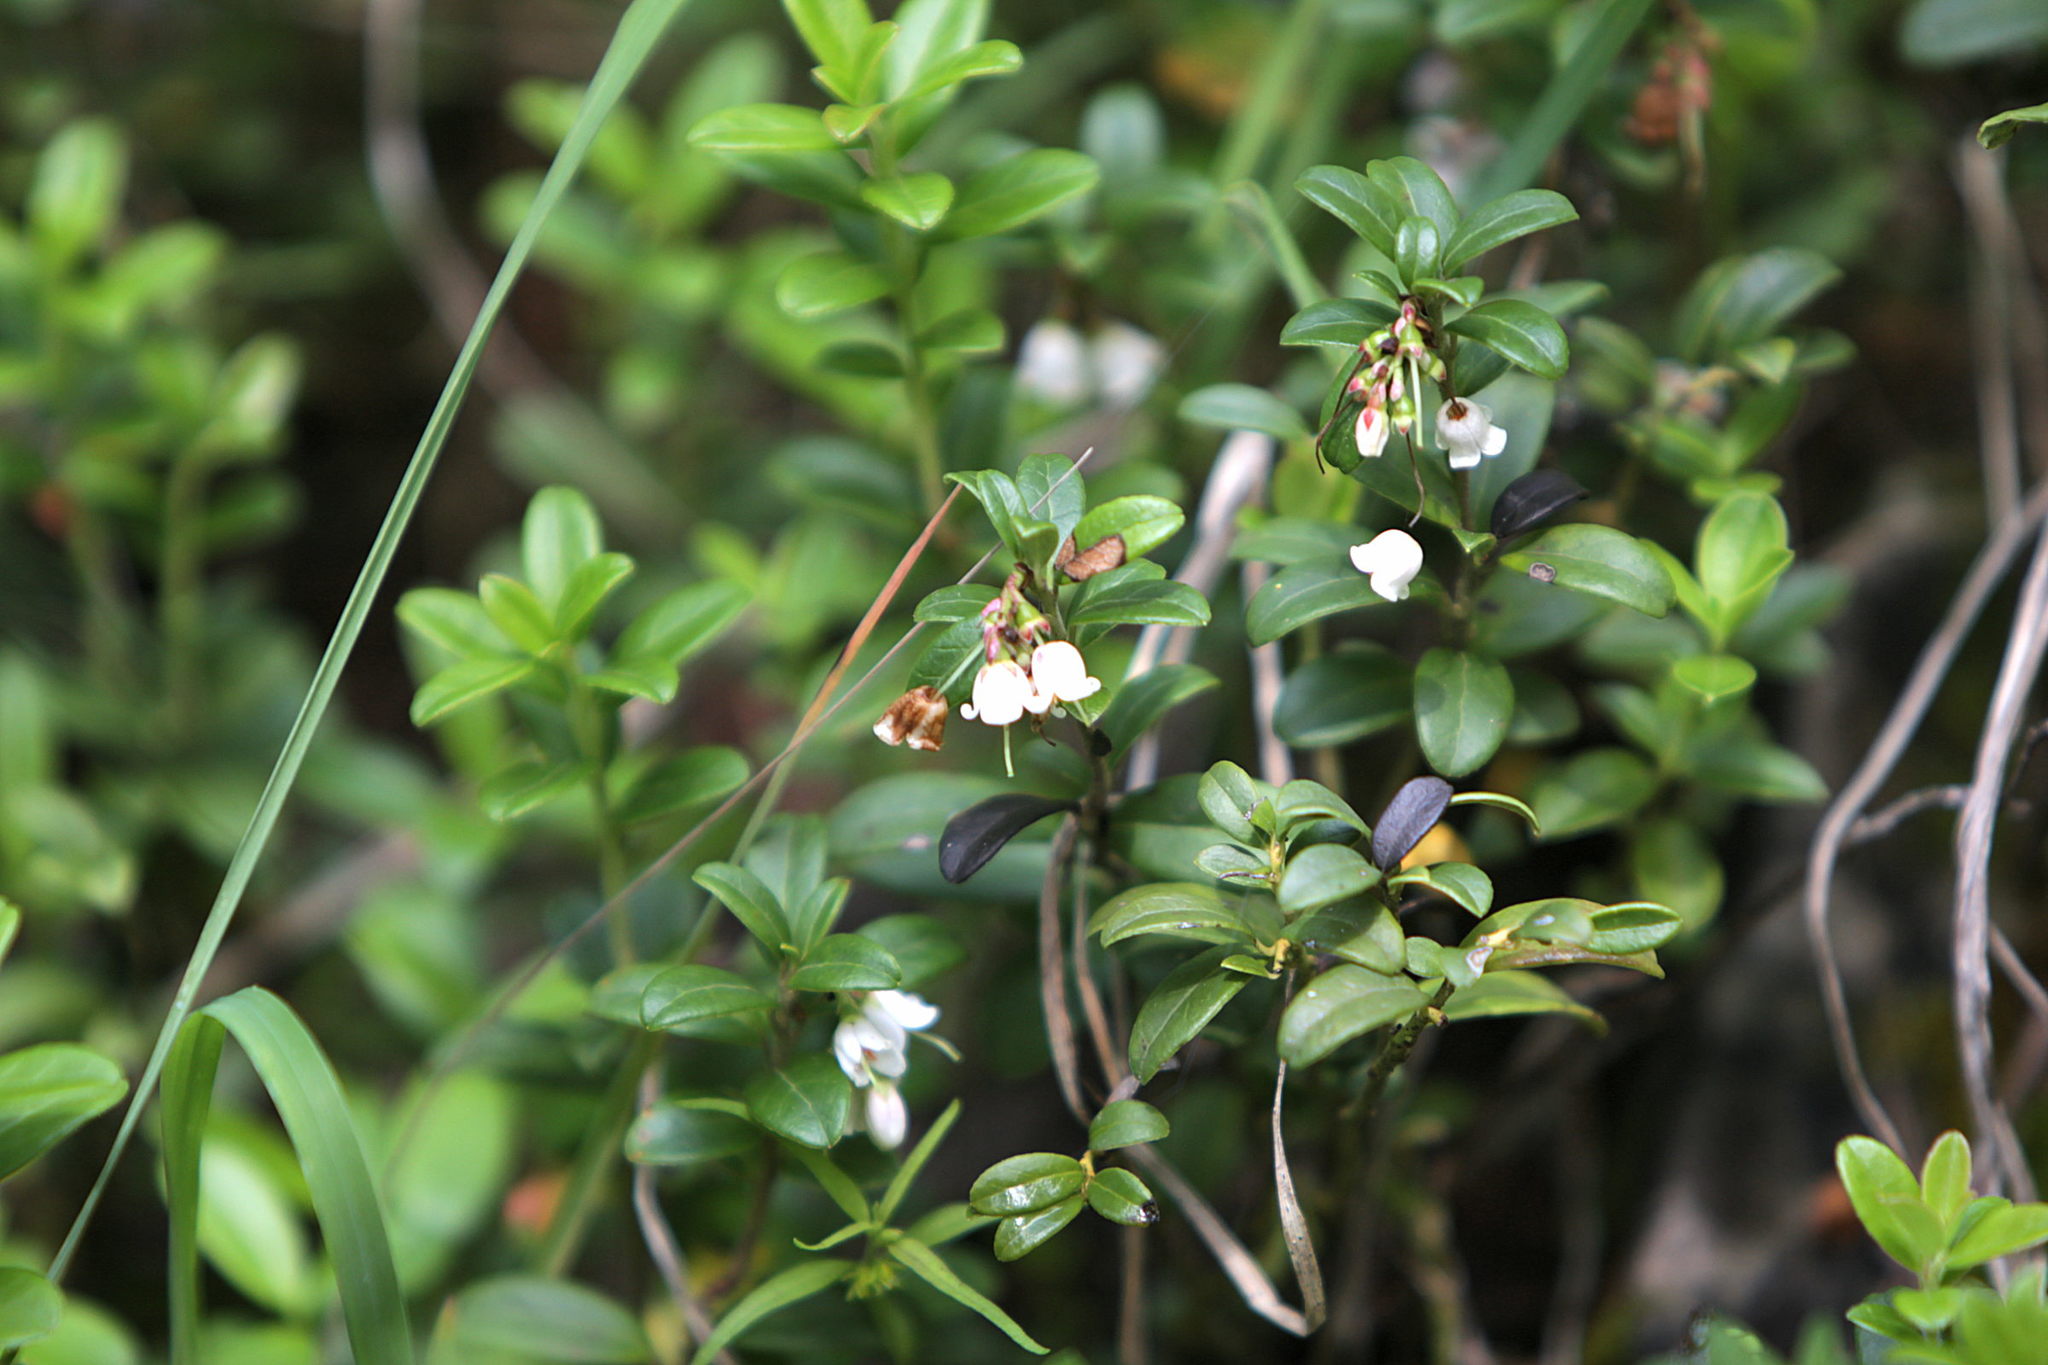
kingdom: Plantae
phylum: Tracheophyta
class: Magnoliopsida
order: Ericales
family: Ericaceae
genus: Vaccinium
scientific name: Vaccinium vitis-idaea
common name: Cowberry
